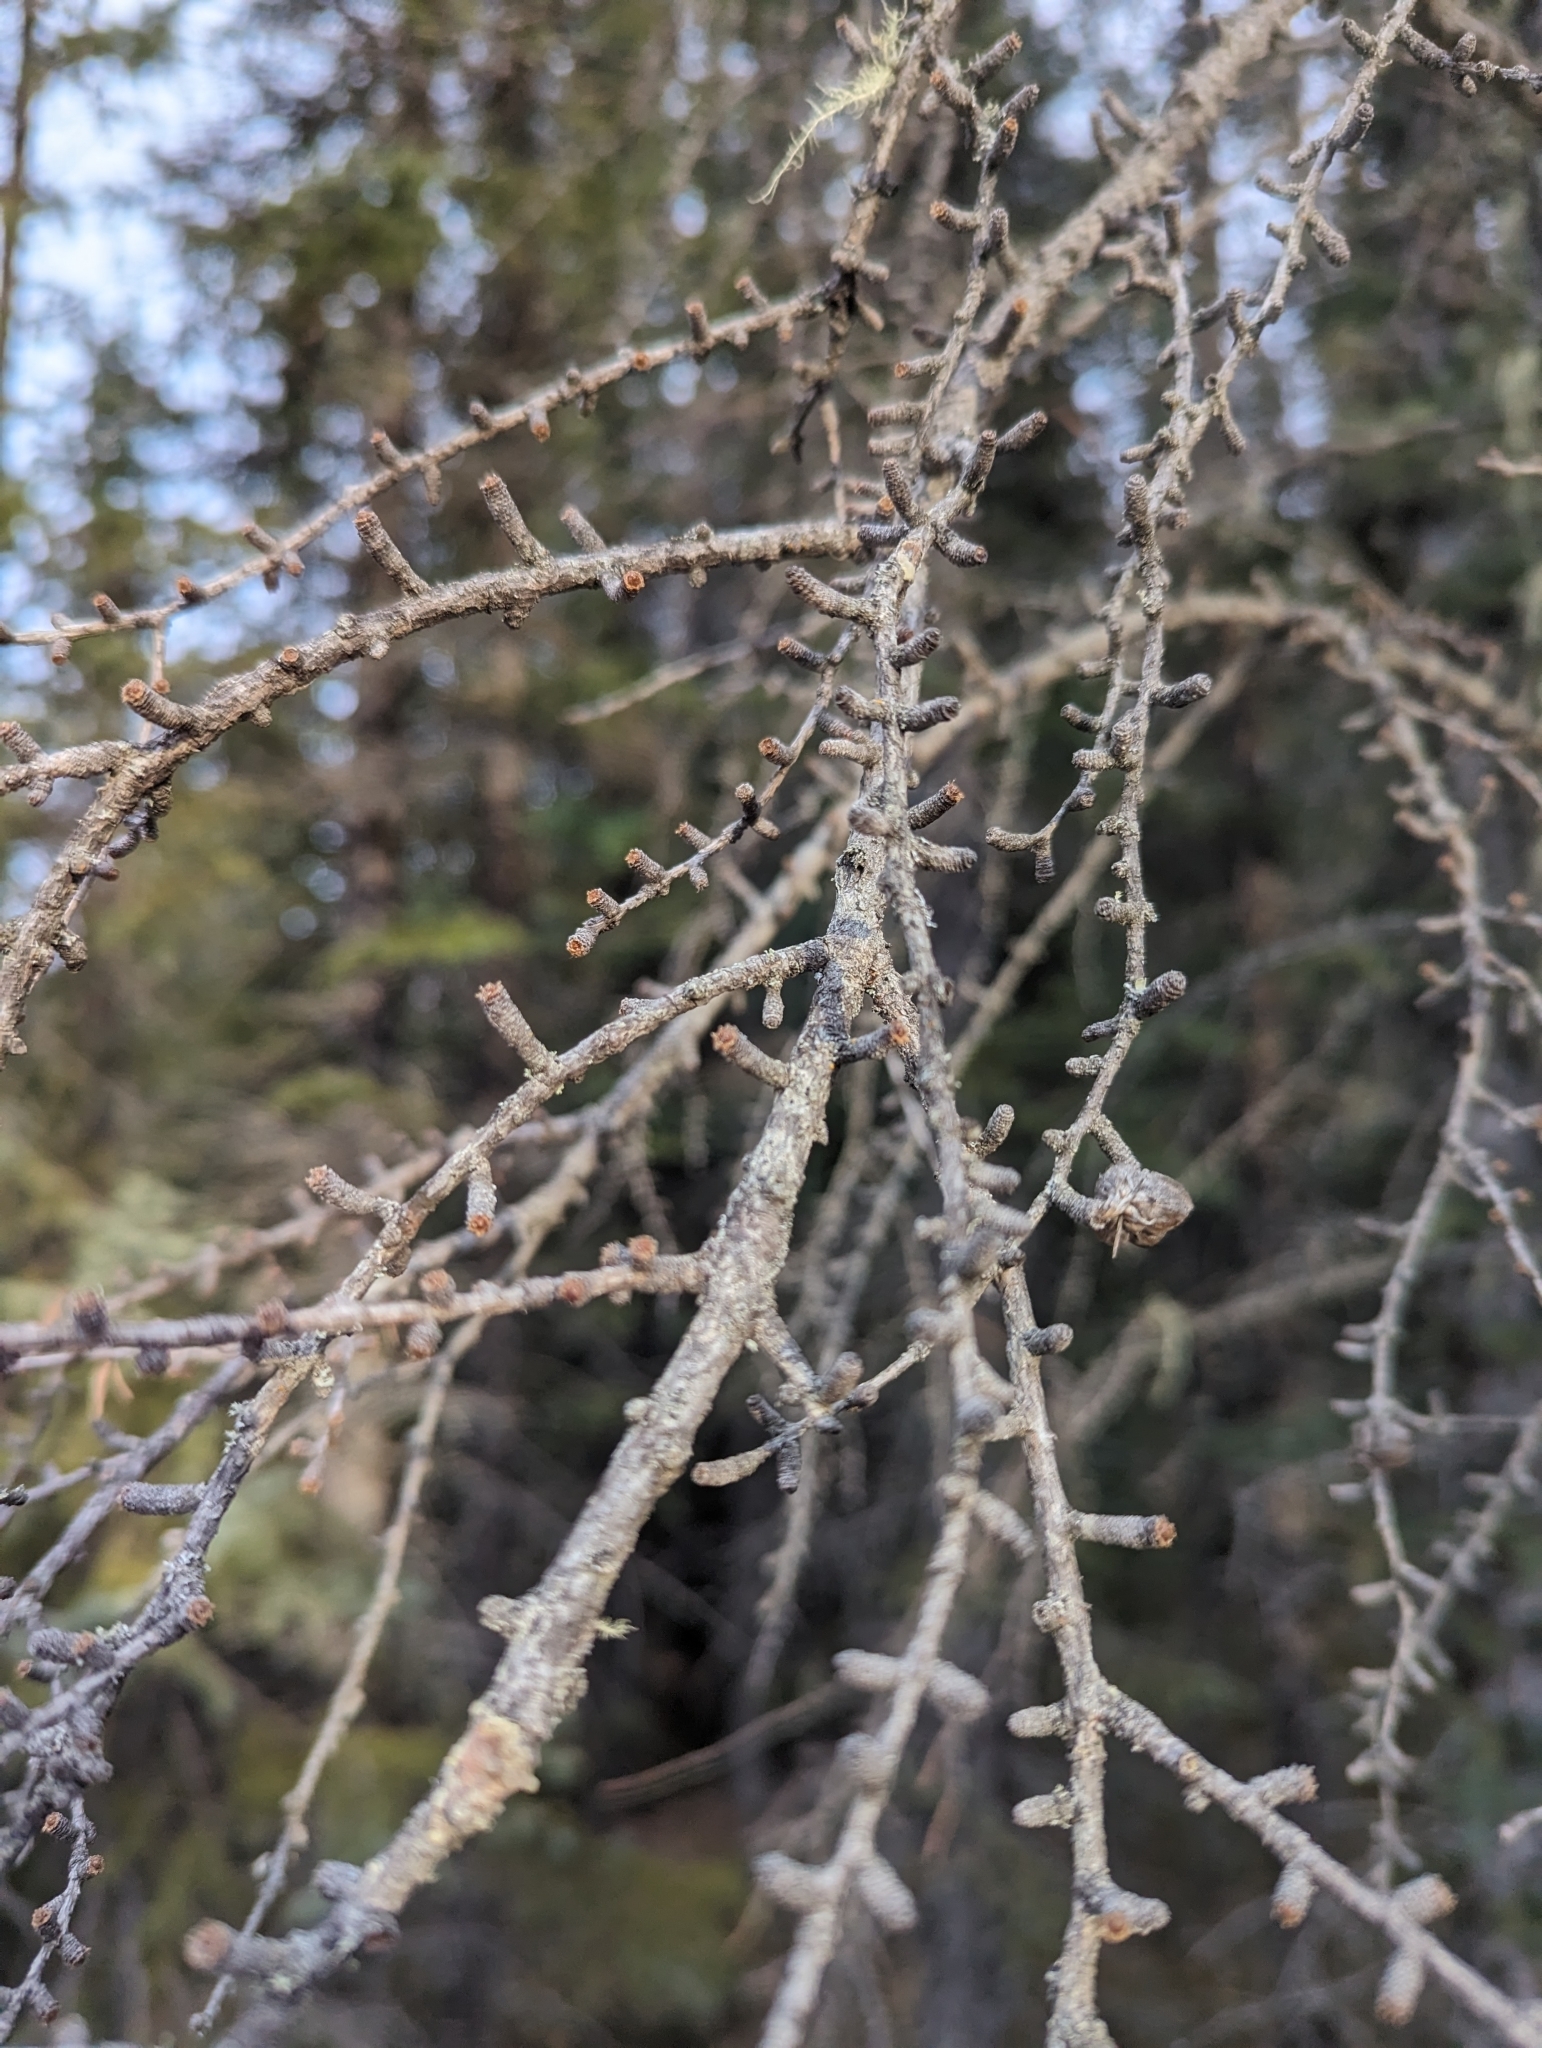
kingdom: Plantae
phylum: Tracheophyta
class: Pinopsida
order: Pinales
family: Pinaceae
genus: Larix
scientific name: Larix laricina
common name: American larch
